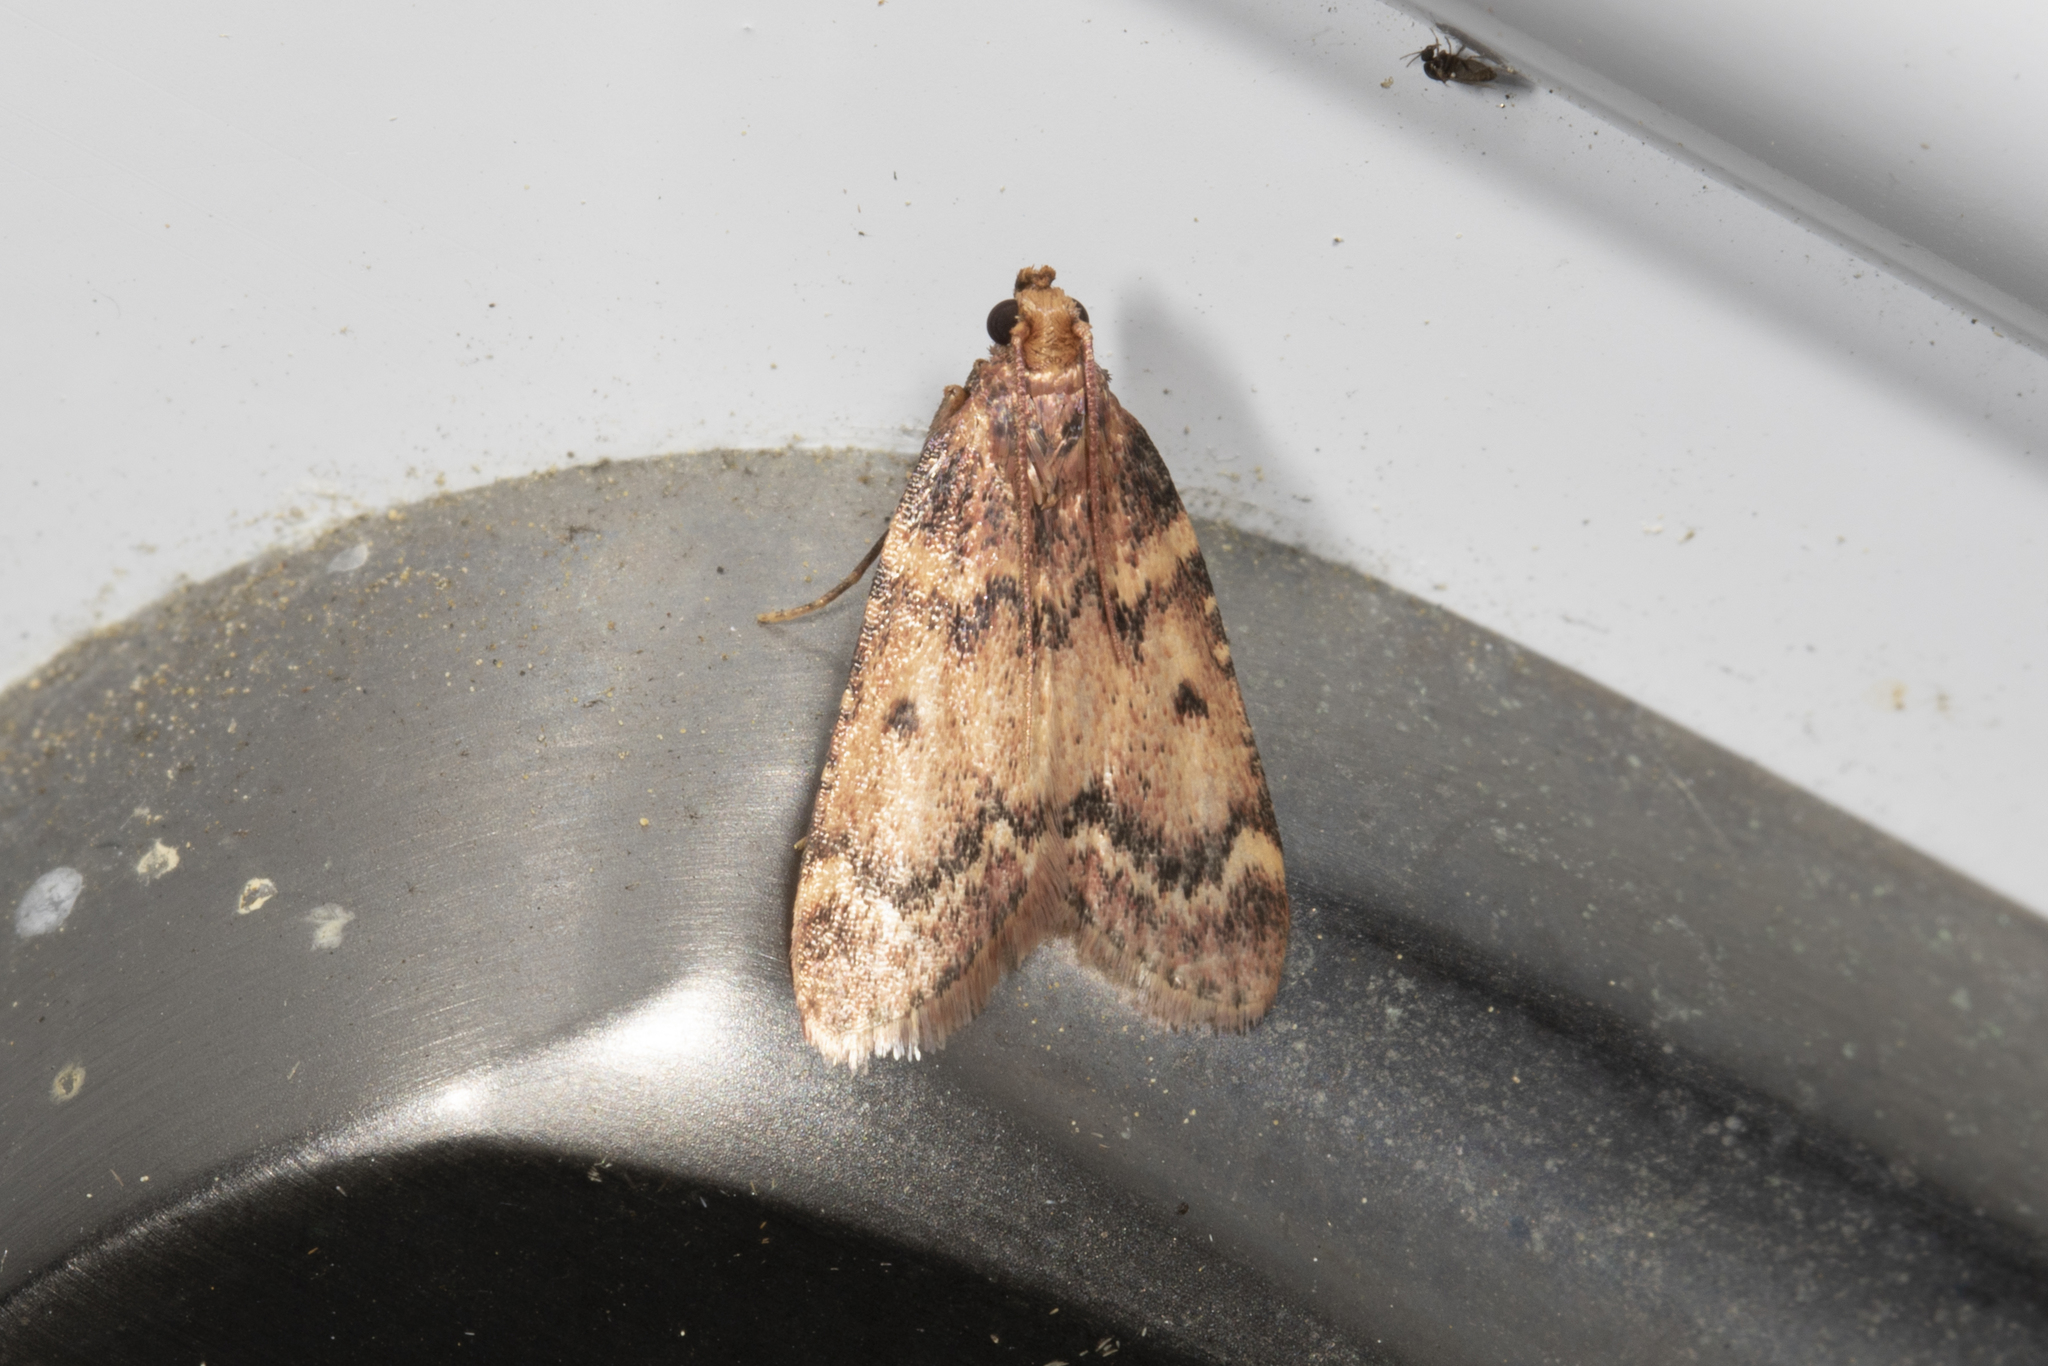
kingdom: Animalia
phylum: Arthropoda
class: Insecta
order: Lepidoptera
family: Pyralidae
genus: Aglossa
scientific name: Aglossa disciferalis
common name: Pink-masked pyralid moth
